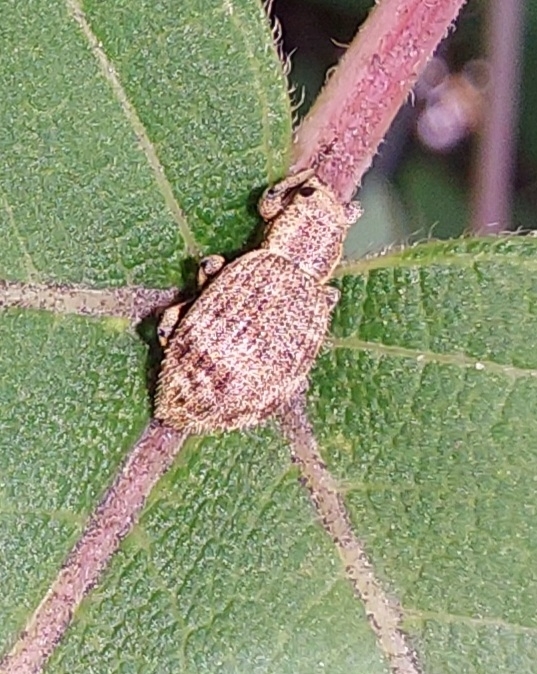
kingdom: Animalia
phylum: Arthropoda
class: Insecta
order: Coleoptera
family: Curculionidae
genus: Sciaphilus
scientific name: Sciaphilus asperatus
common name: Weevil
